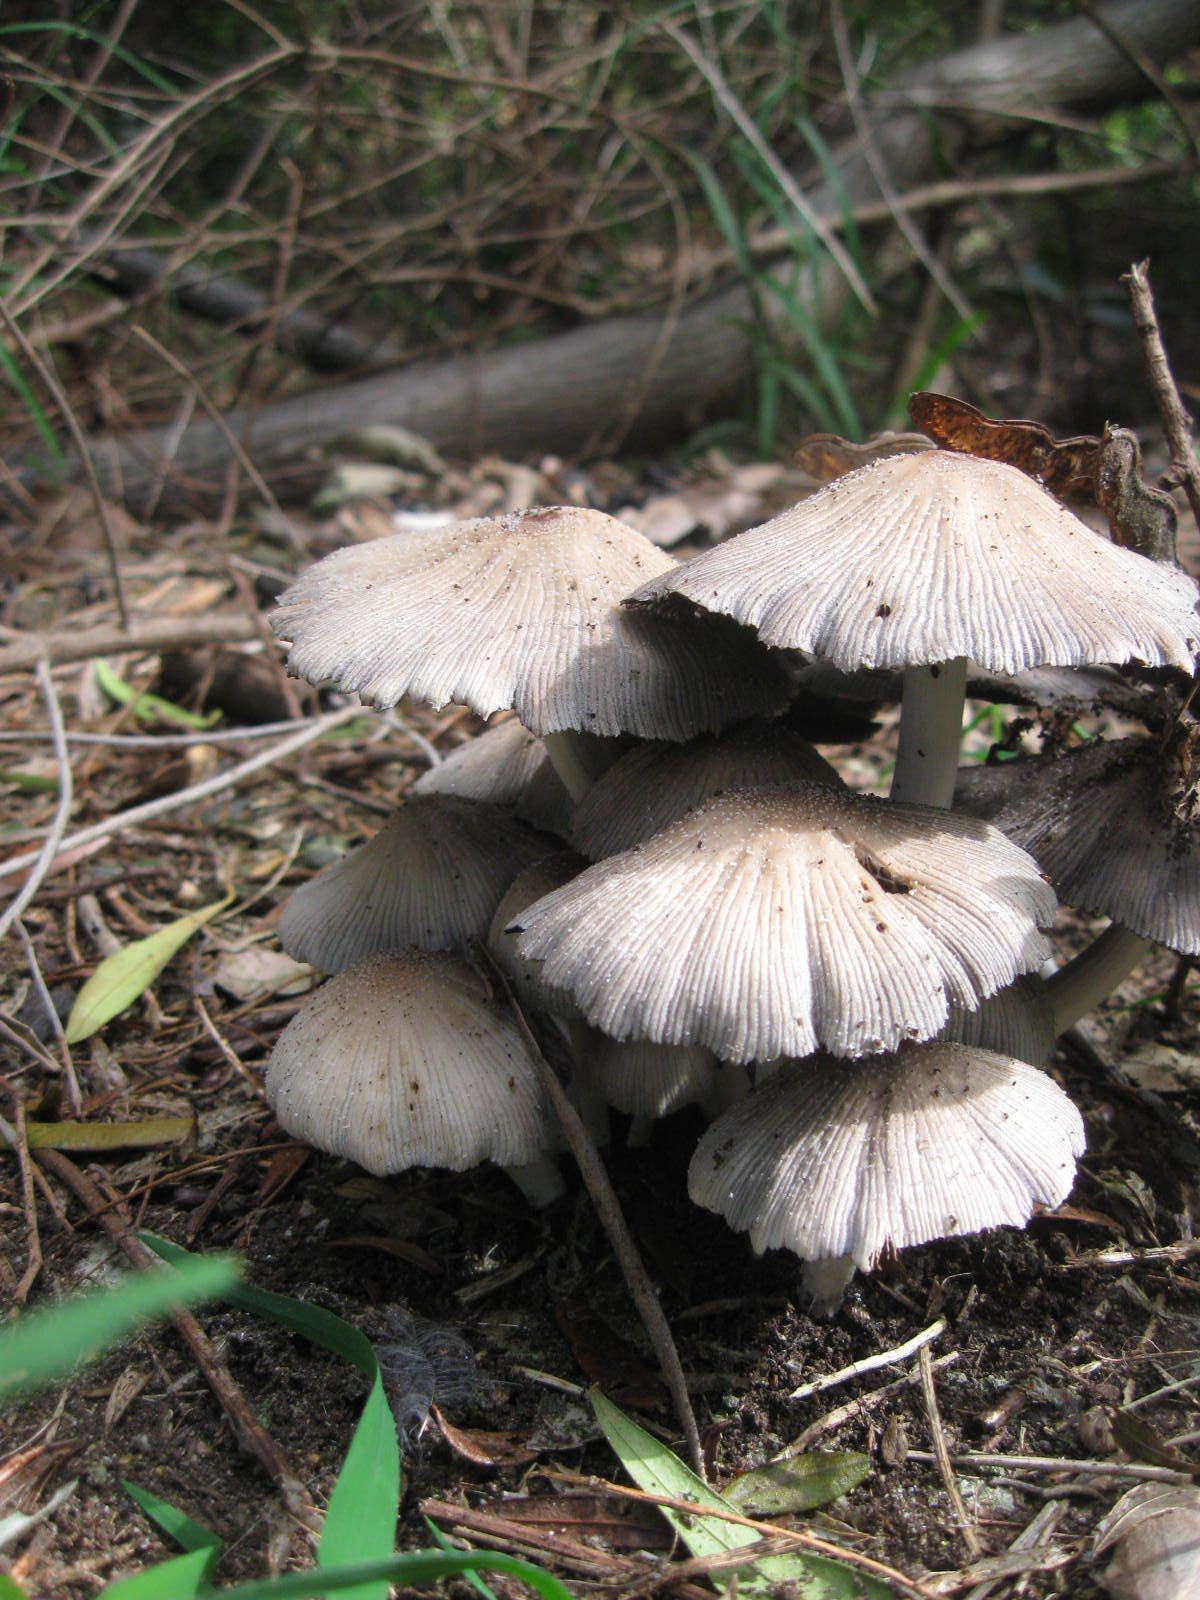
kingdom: Fungi
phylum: Basidiomycota
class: Agaricomycetes
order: Agaricales
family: Psathyrellaceae
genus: Coprinellus
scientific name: Coprinellus micaceus
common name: Glistening ink-cap
